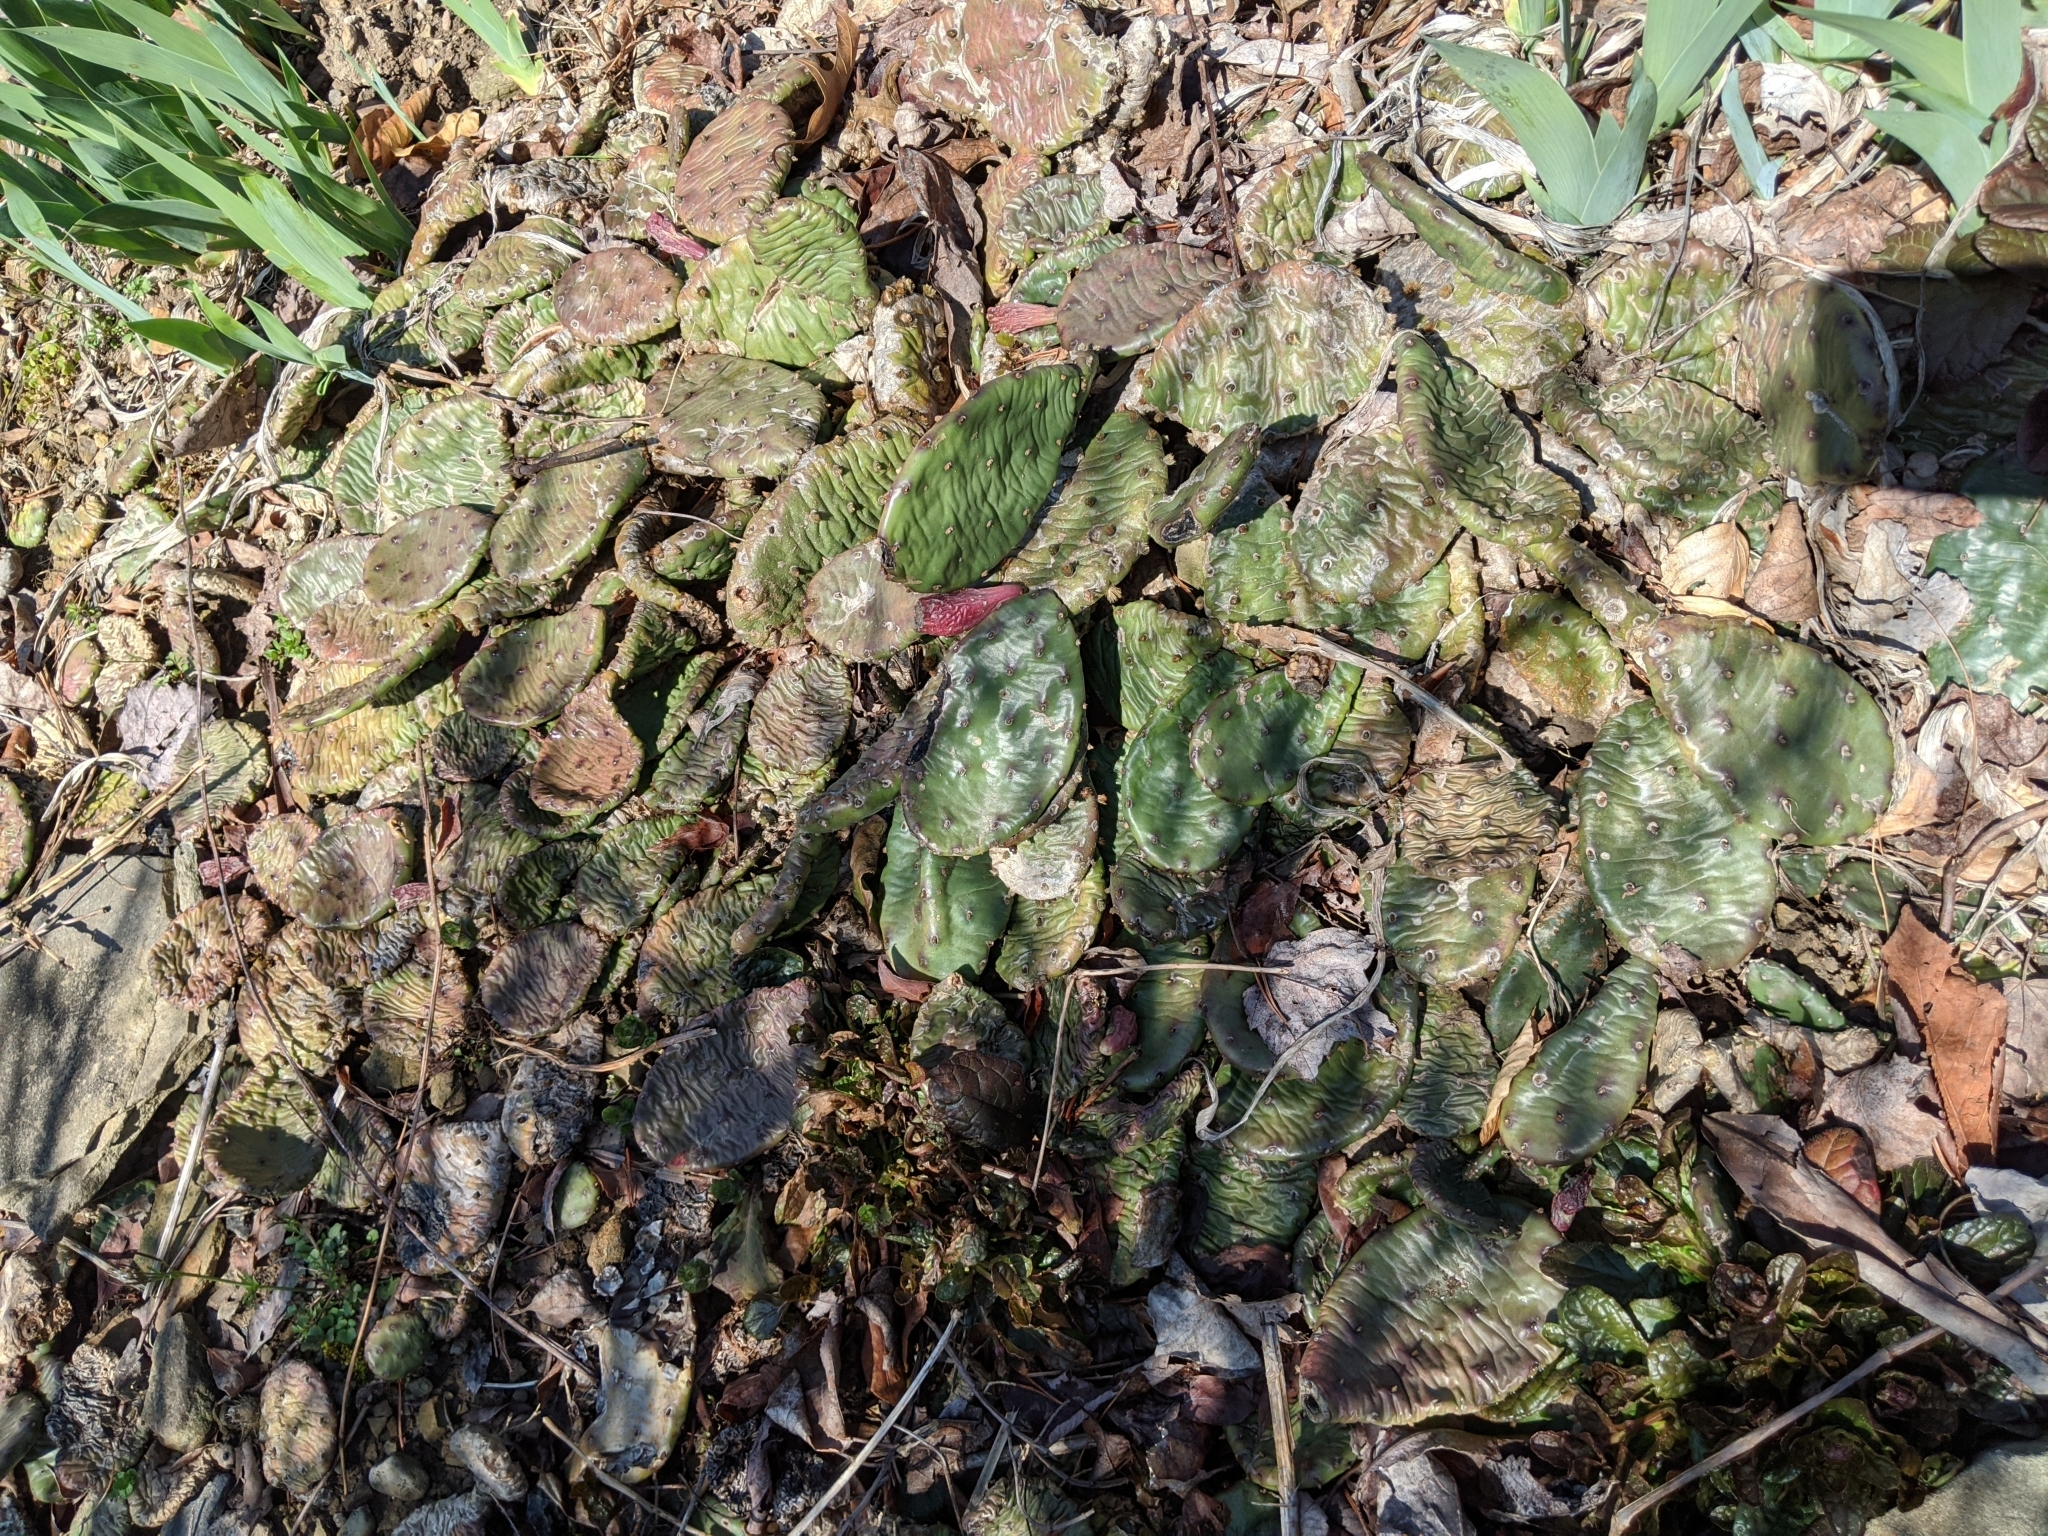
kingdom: Plantae
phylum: Tracheophyta
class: Magnoliopsida
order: Caryophyllales
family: Cactaceae
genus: Opuntia
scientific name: Opuntia humifusa
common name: Eastern prickly-pear
